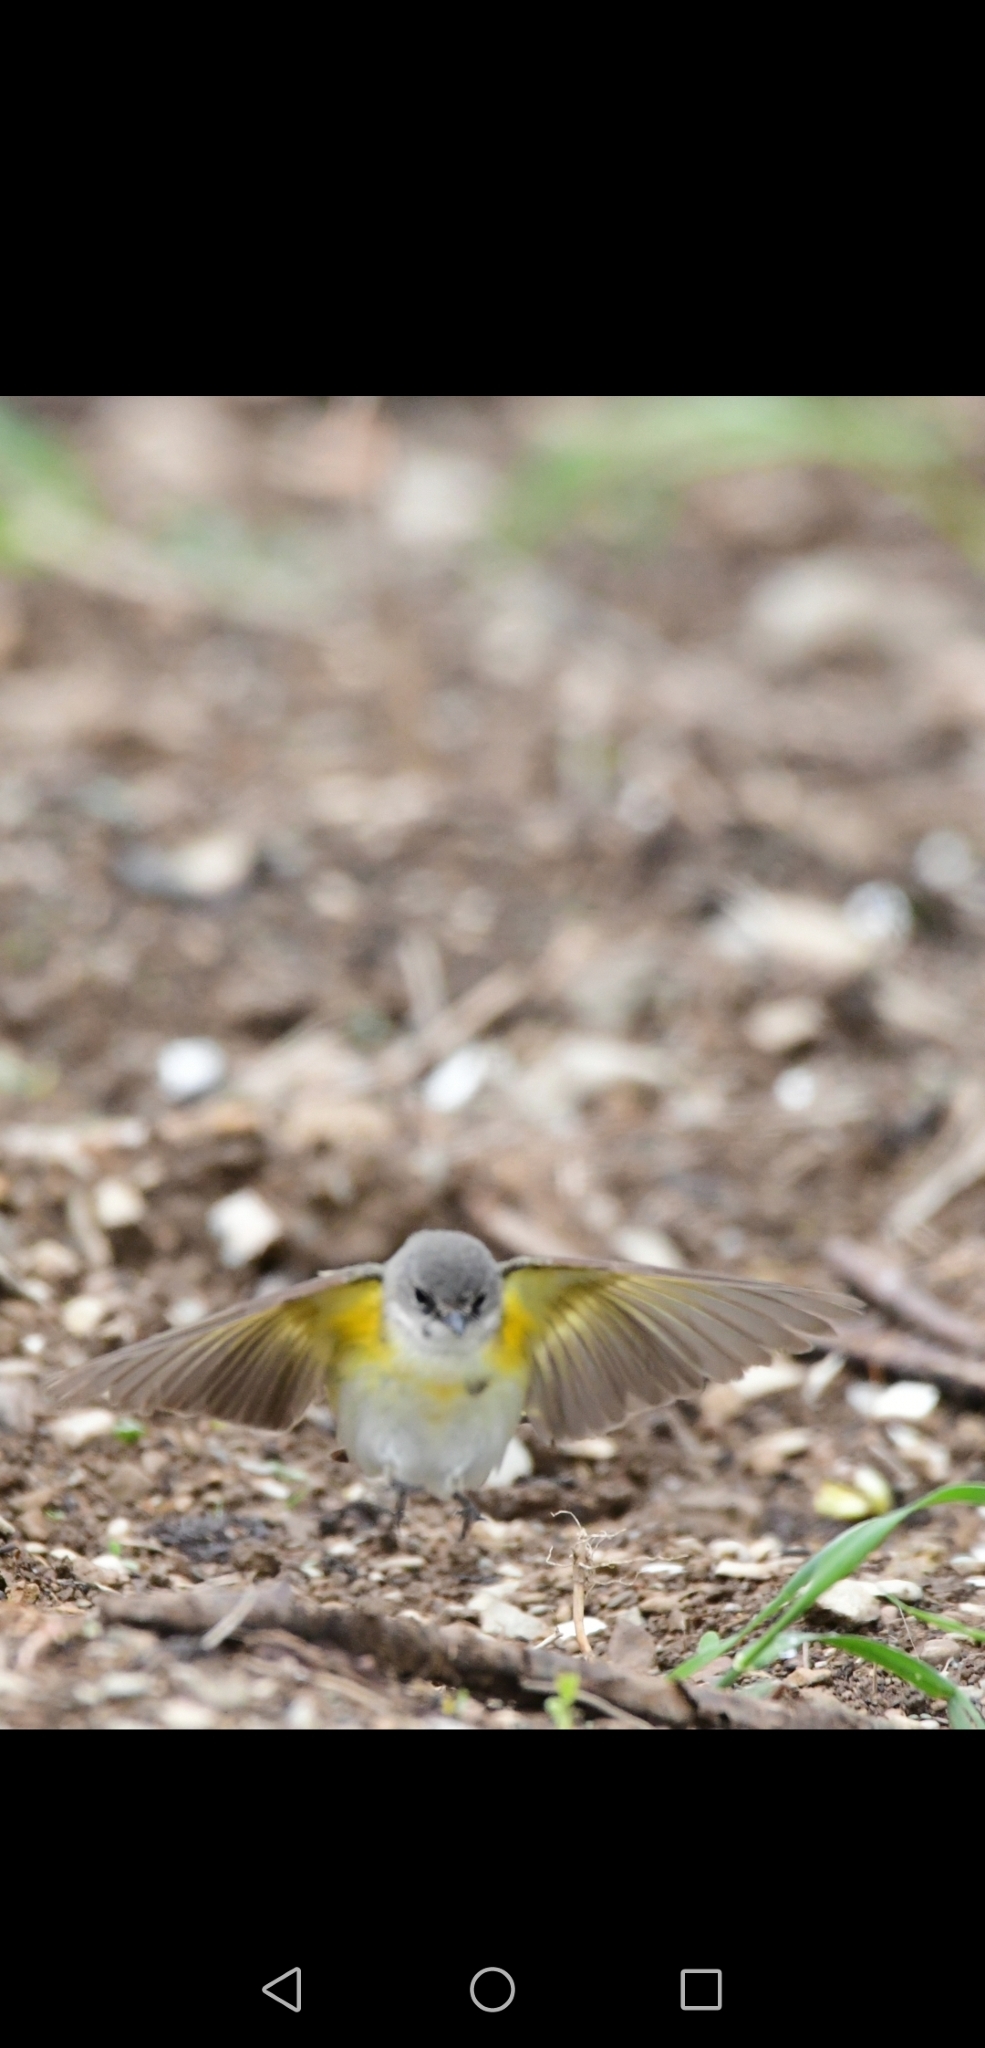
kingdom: Animalia
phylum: Chordata
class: Aves
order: Passeriformes
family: Parulidae
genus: Setophaga
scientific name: Setophaga ruticilla
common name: American redstart
